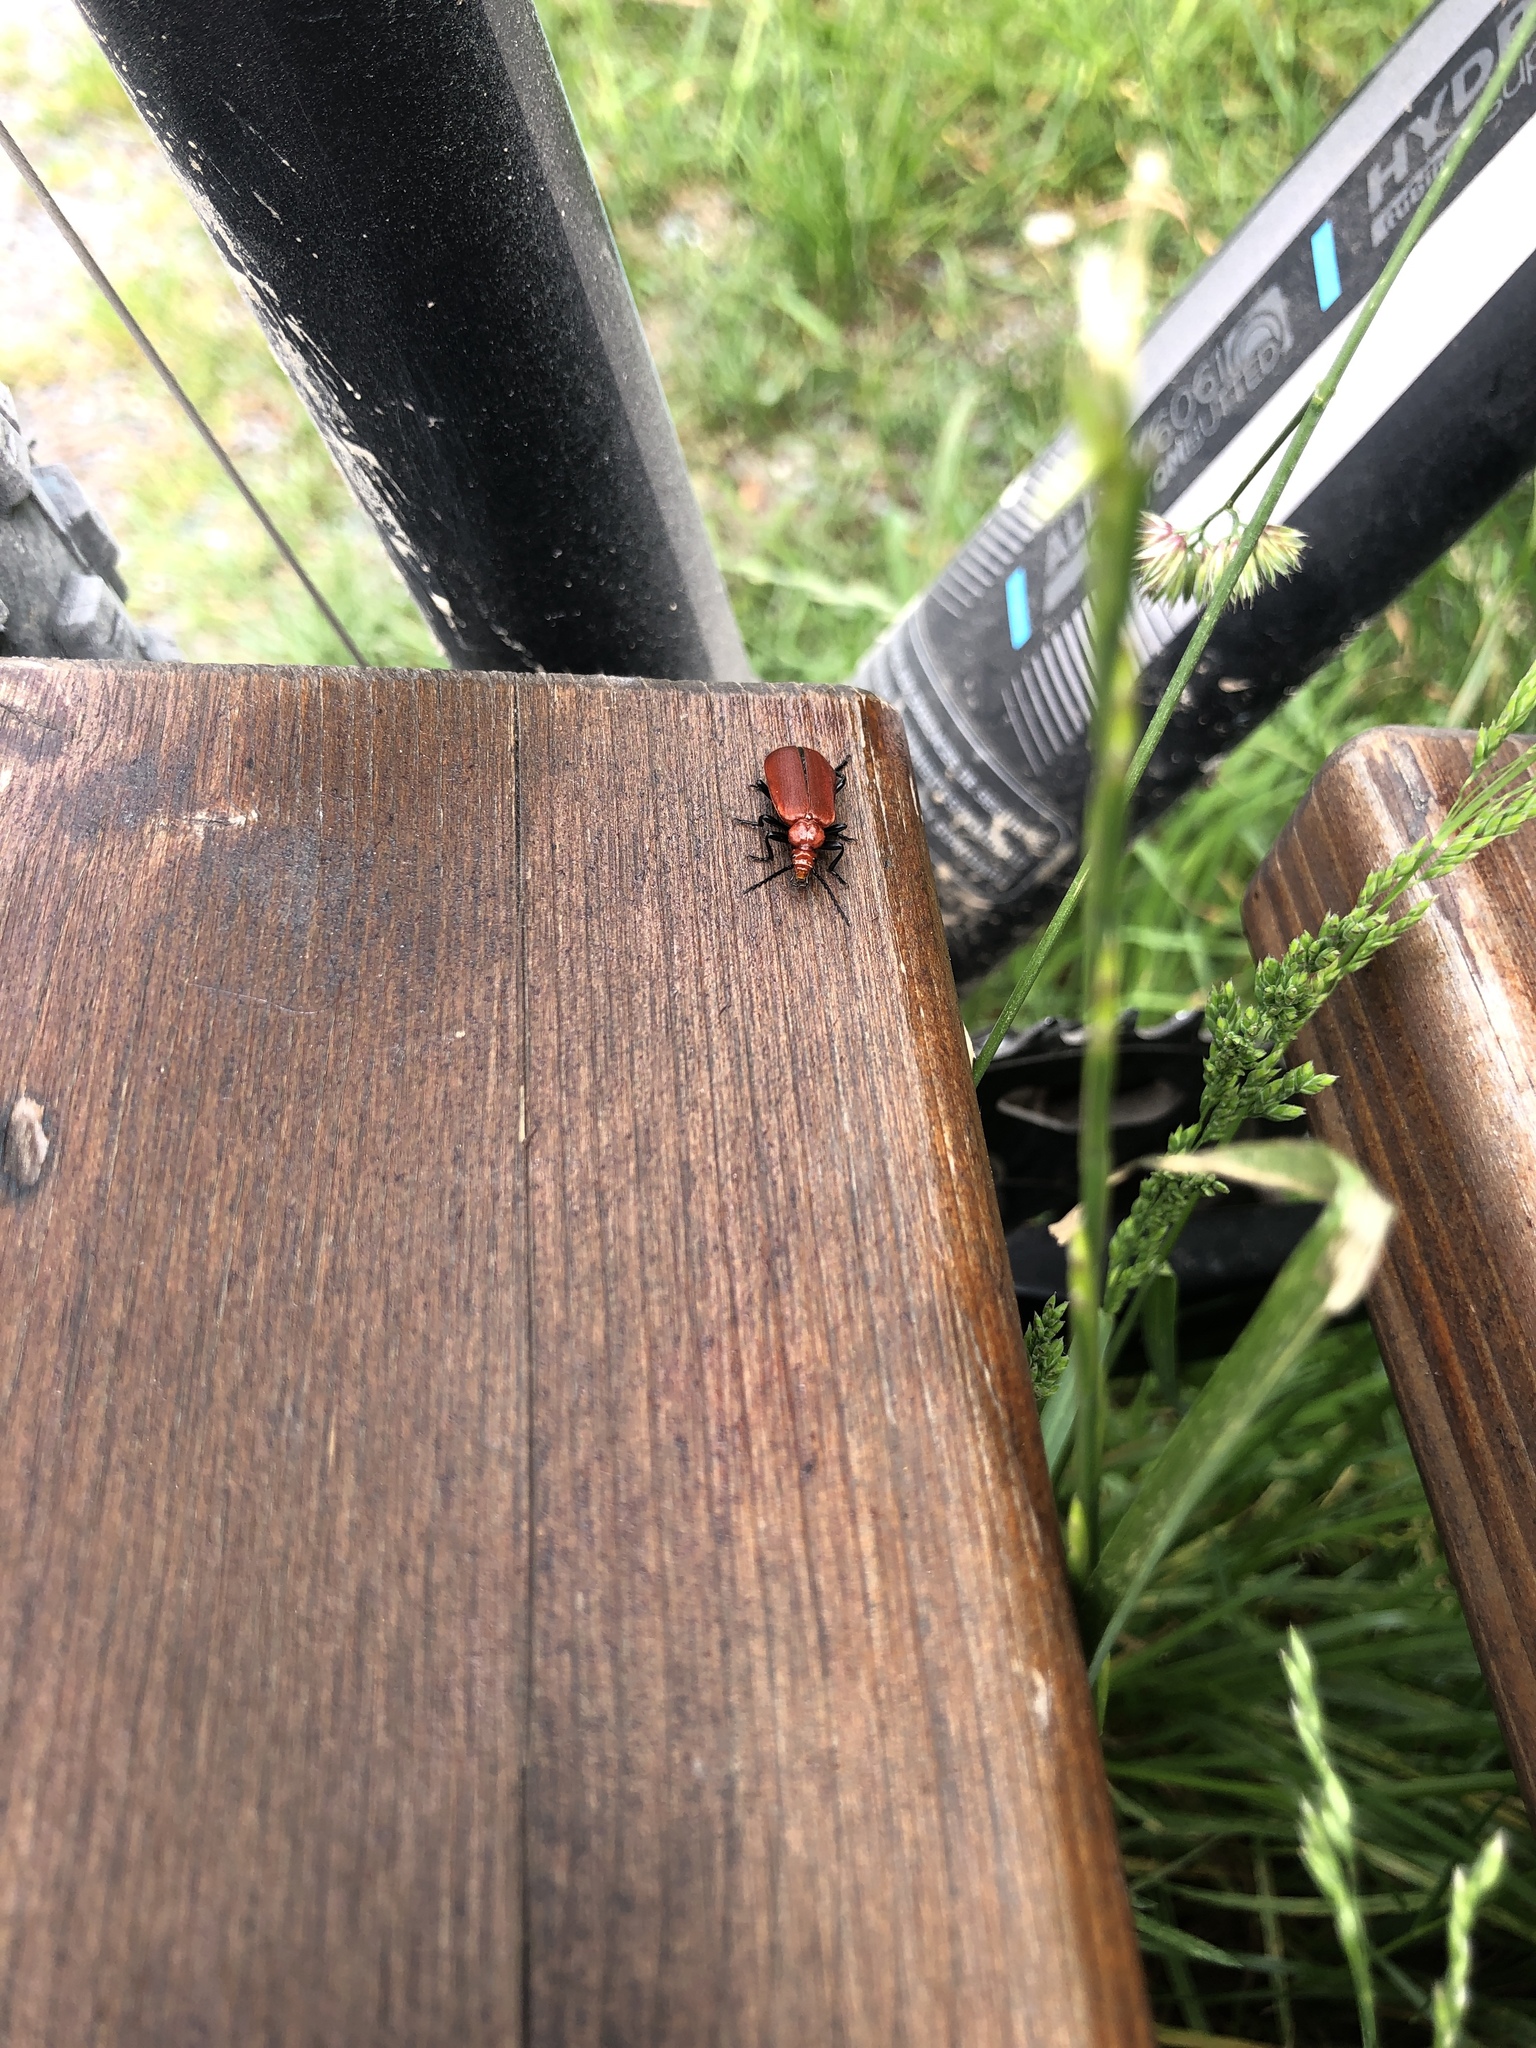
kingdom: Animalia
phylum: Arthropoda
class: Insecta
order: Coleoptera
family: Pyrochroidae
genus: Pyrochroa
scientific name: Pyrochroa serraticornis
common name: Red-headed cardinal beetle
